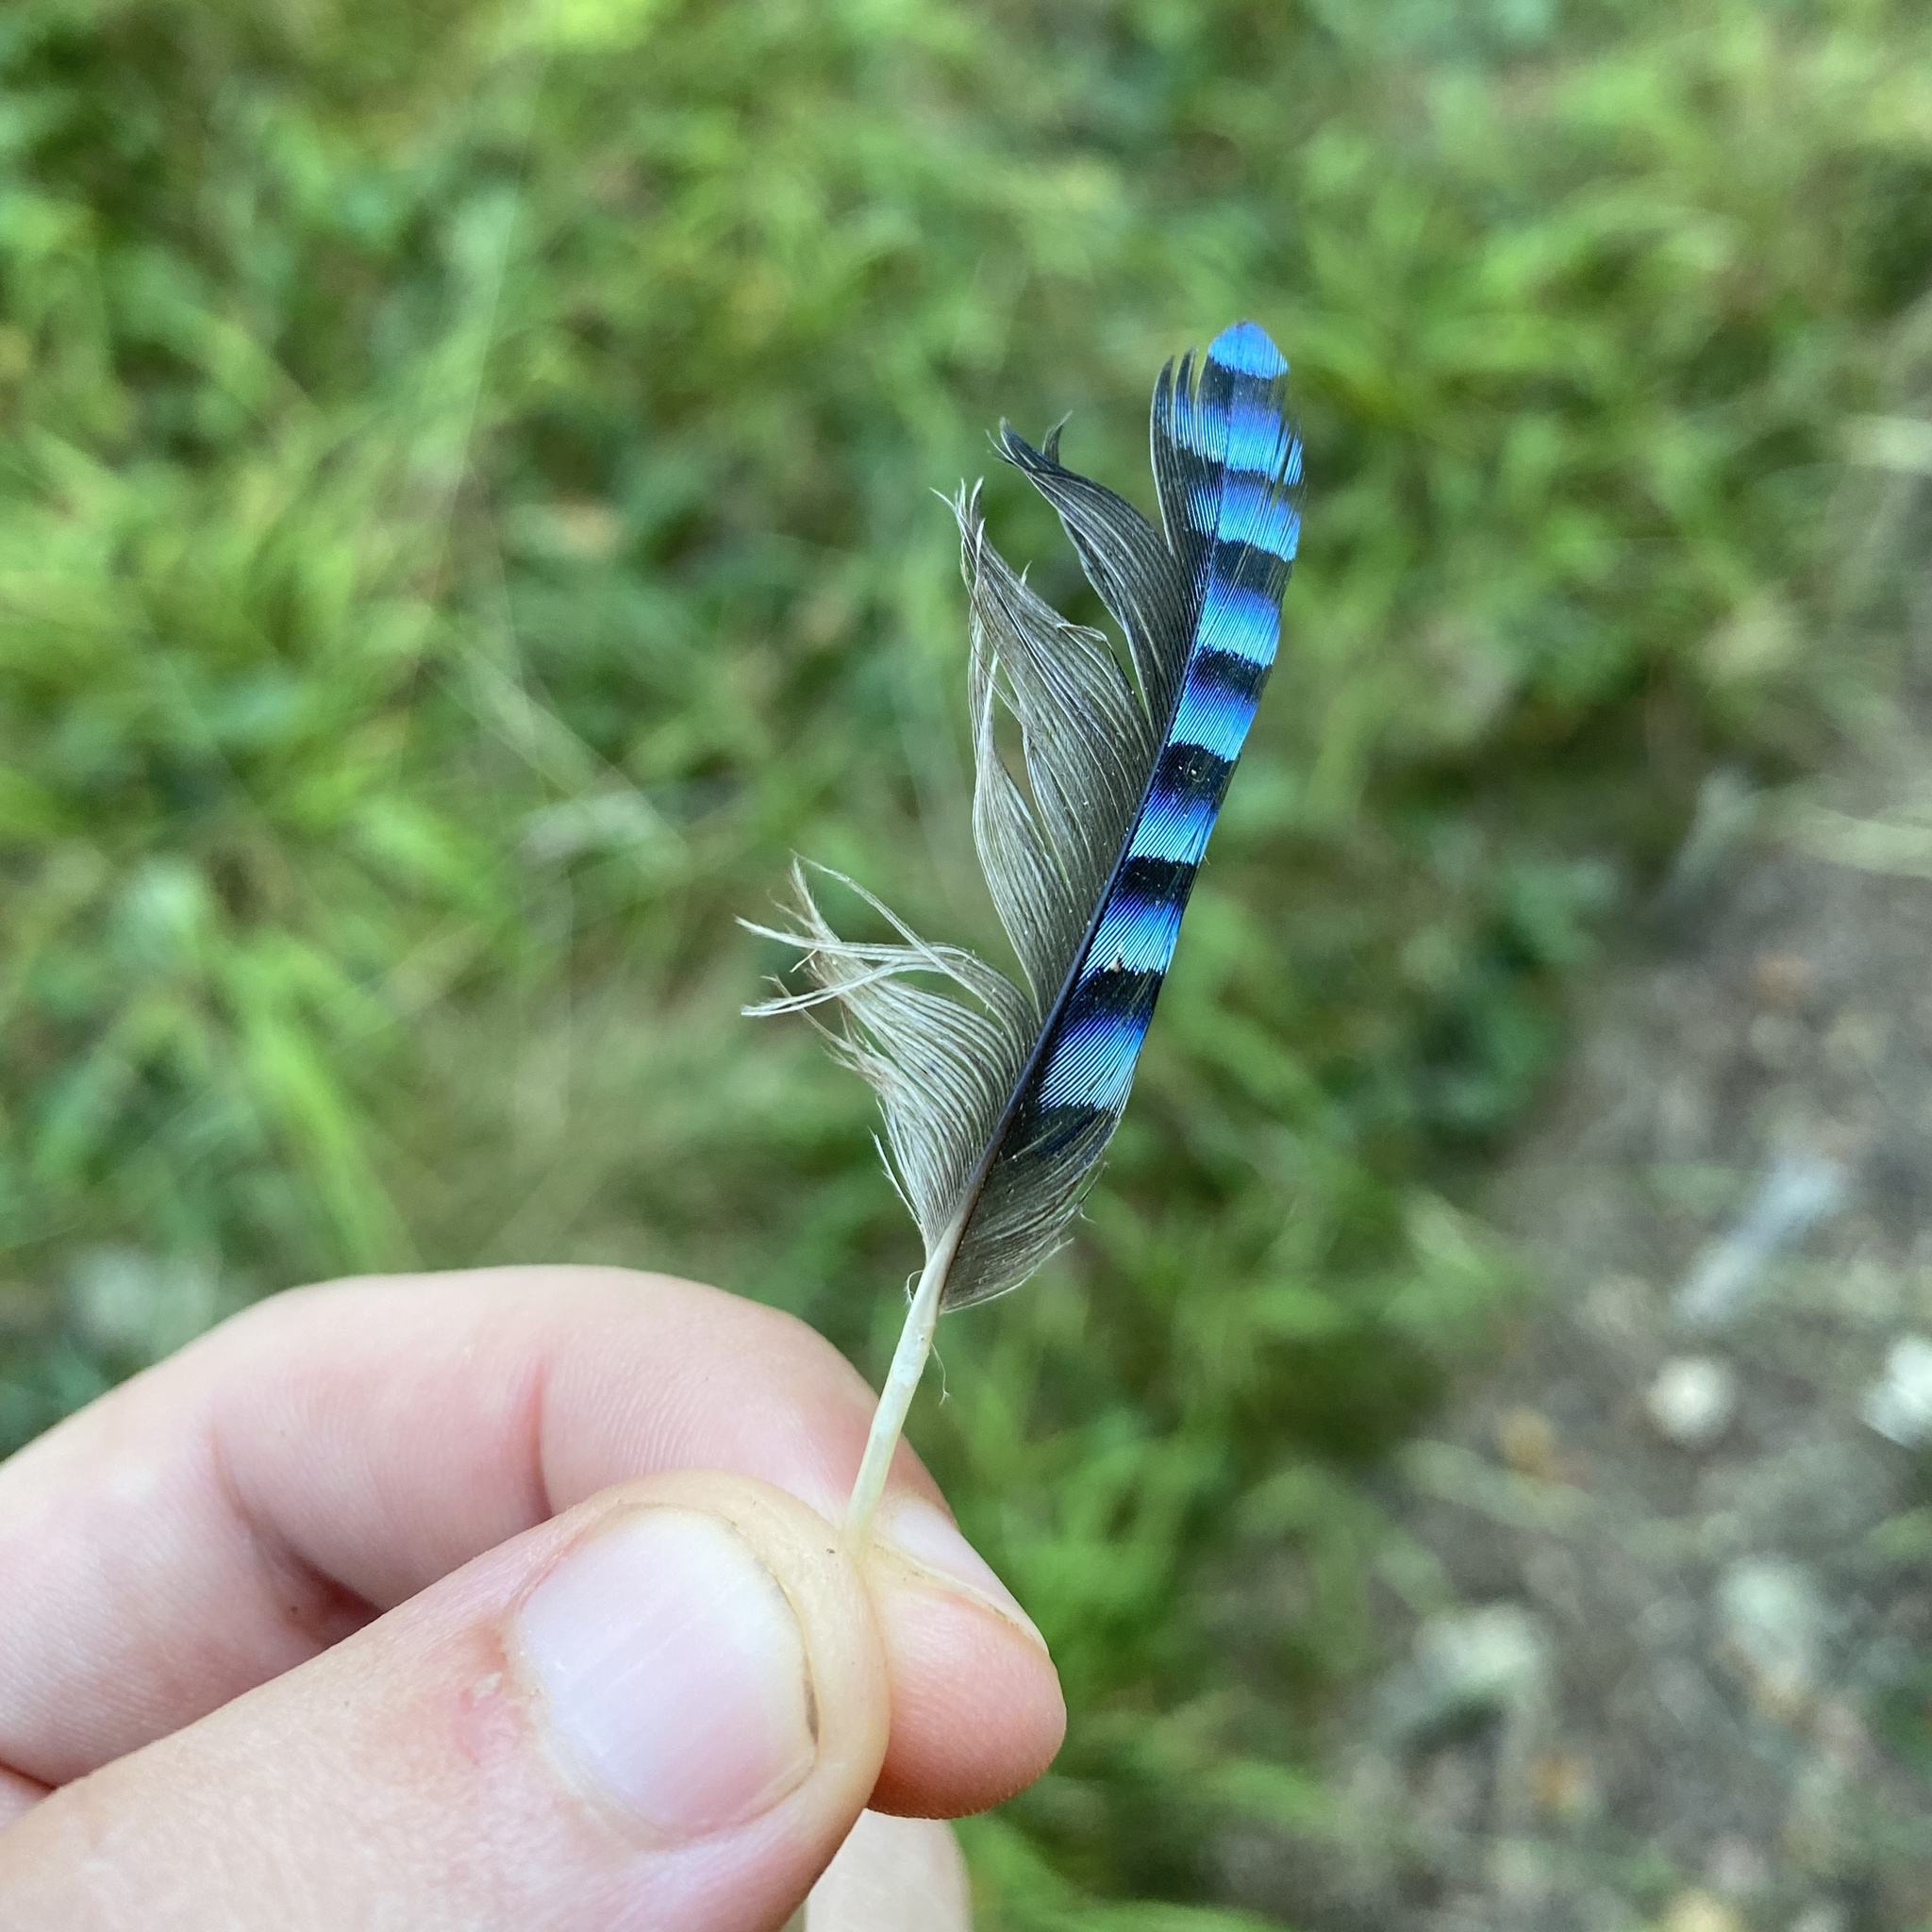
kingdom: Animalia
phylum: Chordata
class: Aves
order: Passeriformes
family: Corvidae
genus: Garrulus
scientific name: Garrulus glandarius
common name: Eurasian jay
